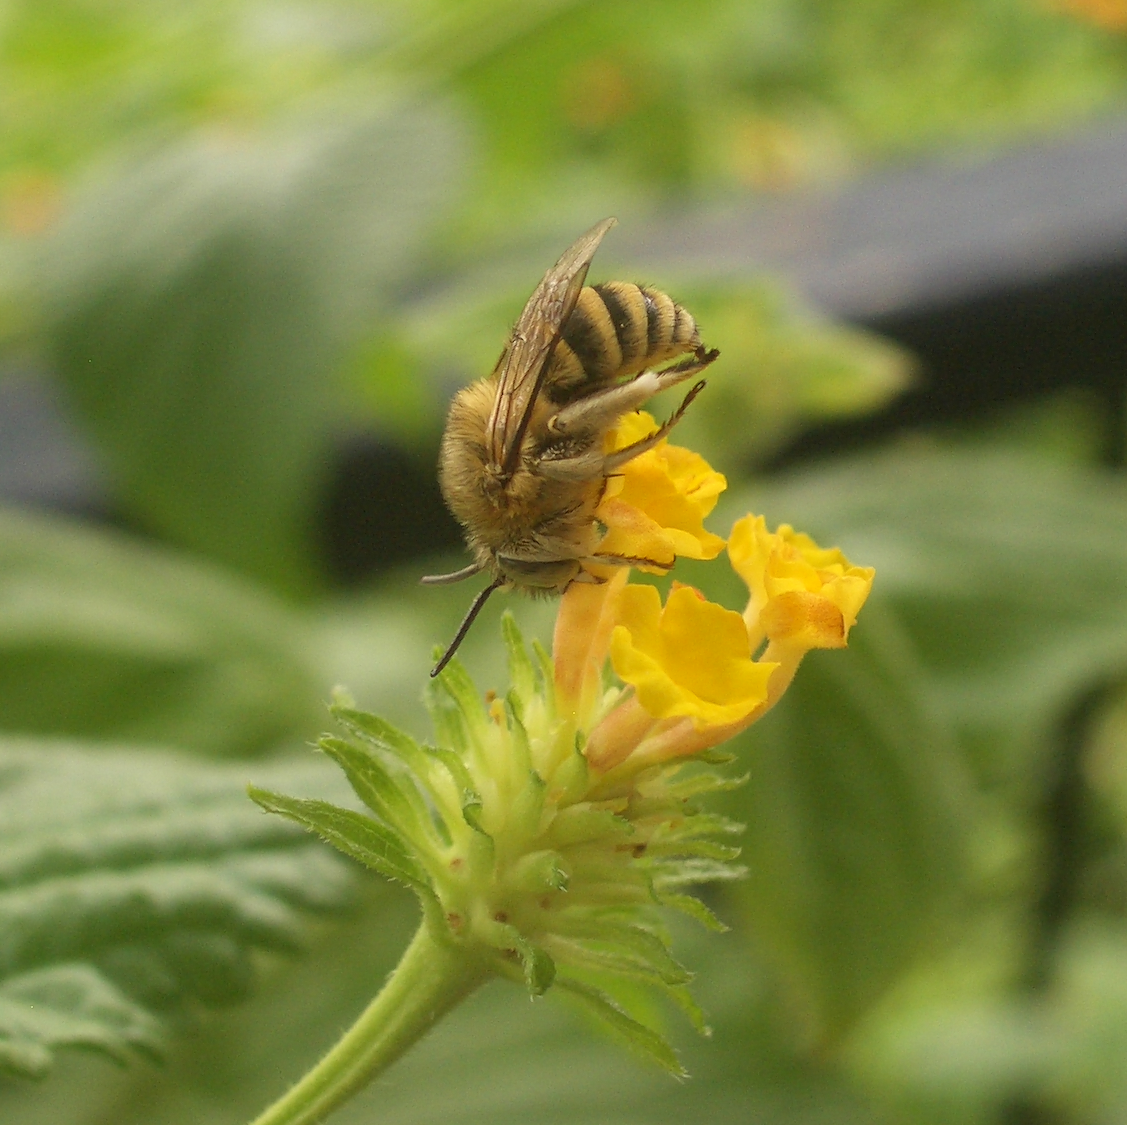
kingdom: Animalia
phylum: Arthropoda
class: Insecta
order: Hymenoptera
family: Apidae
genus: Amegilla
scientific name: Amegilla garrula
